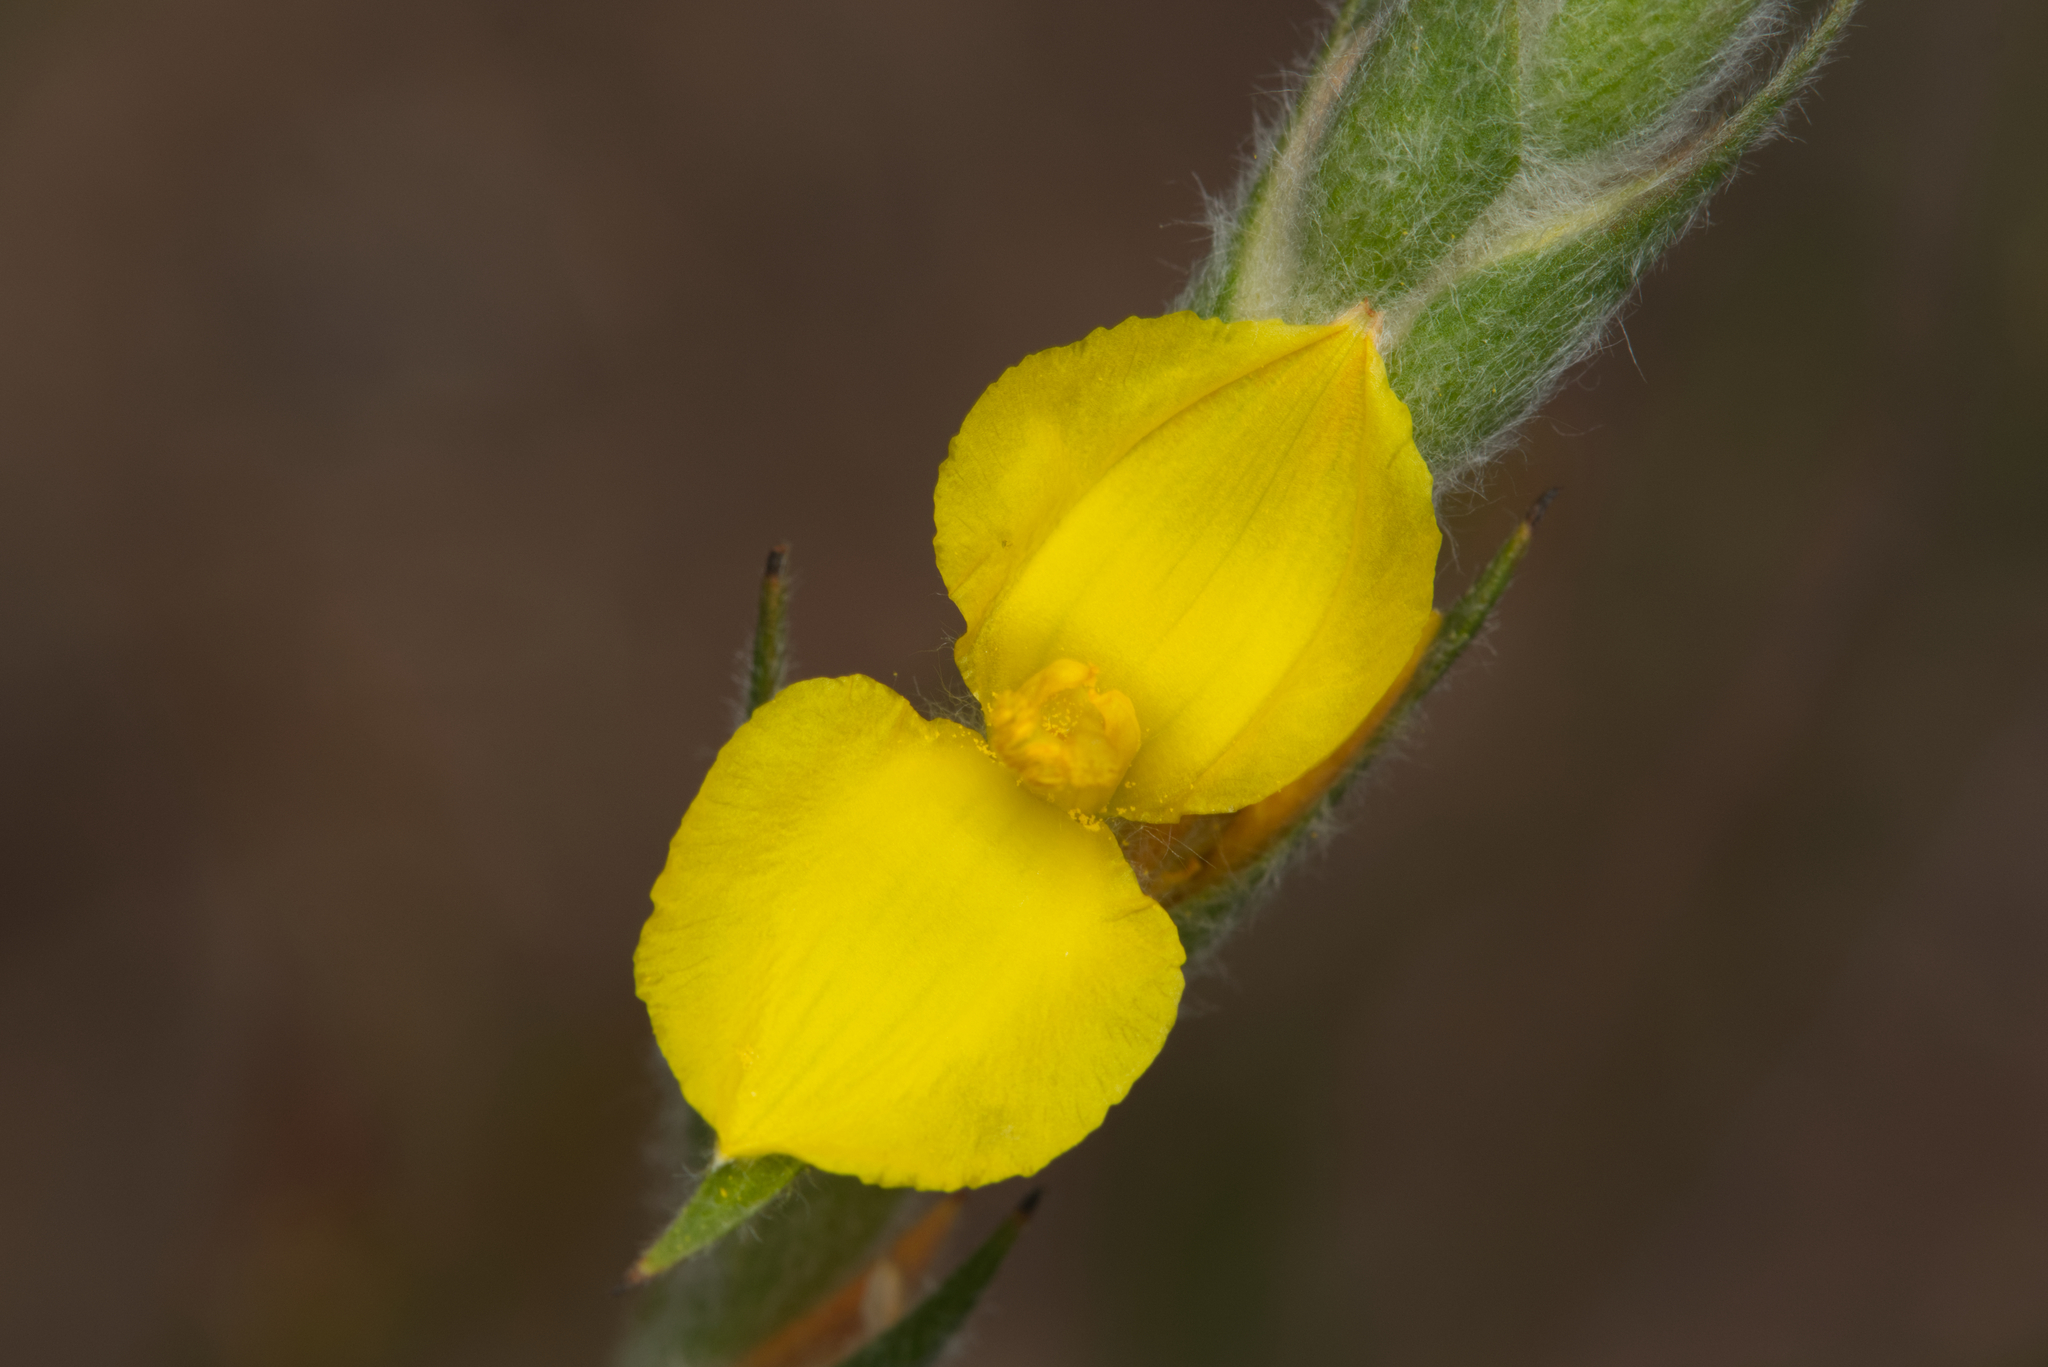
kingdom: Plantae
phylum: Tracheophyta
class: Liliopsida
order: Commelinales
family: Philydraceae
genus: Philydrum
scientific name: Philydrum lanuginosum
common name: Woolly frog's mouth
